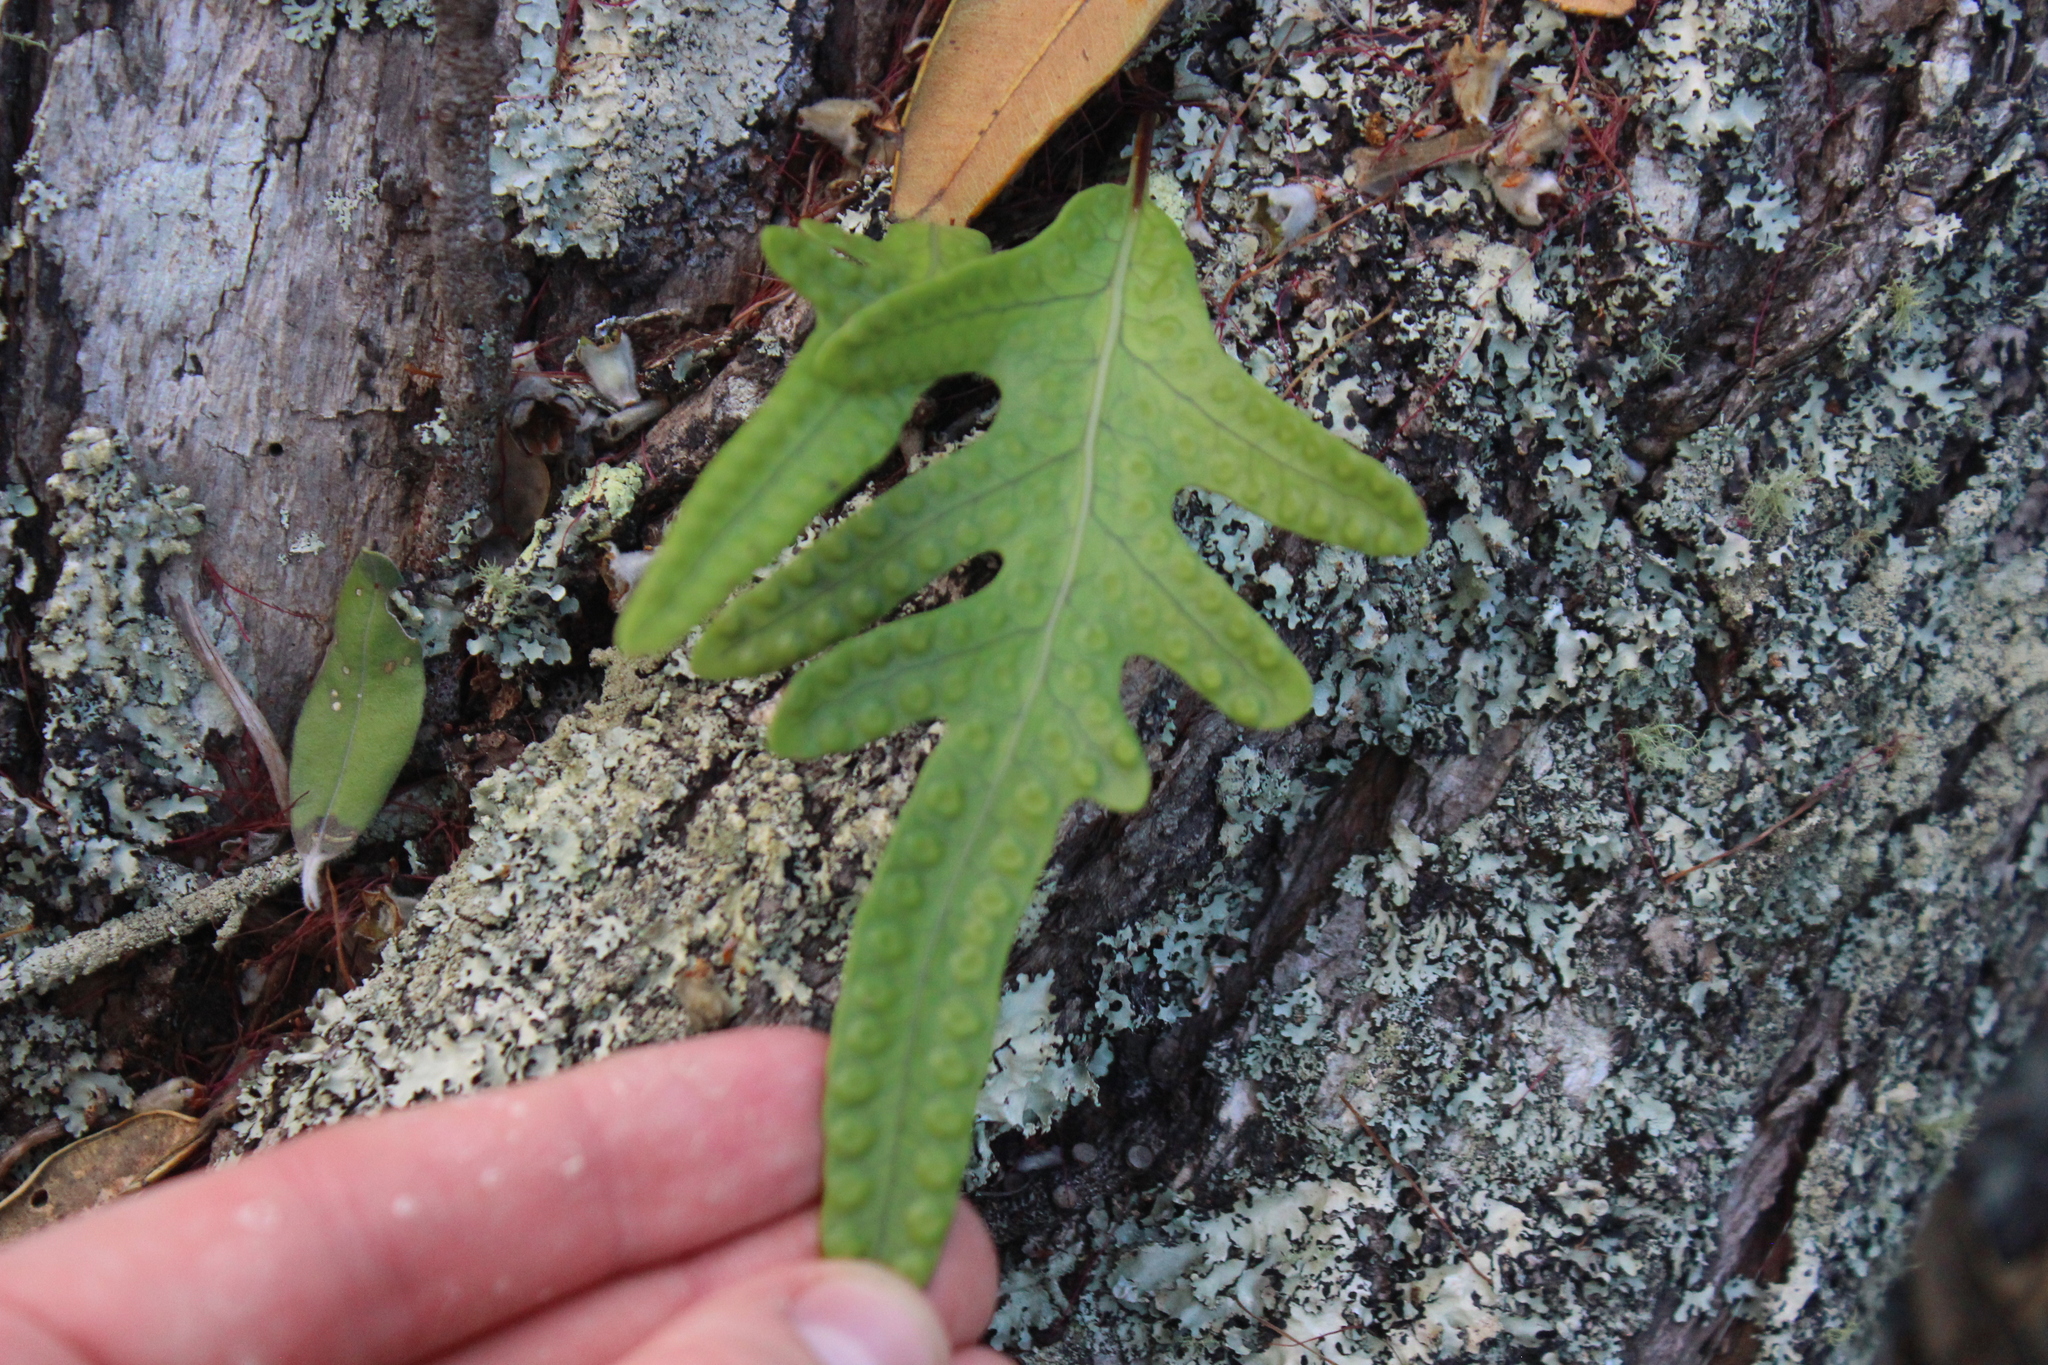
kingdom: Plantae
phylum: Tracheophyta
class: Polypodiopsida
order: Polypodiales
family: Polypodiaceae
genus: Lecanopteris
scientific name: Lecanopteris pustulata
